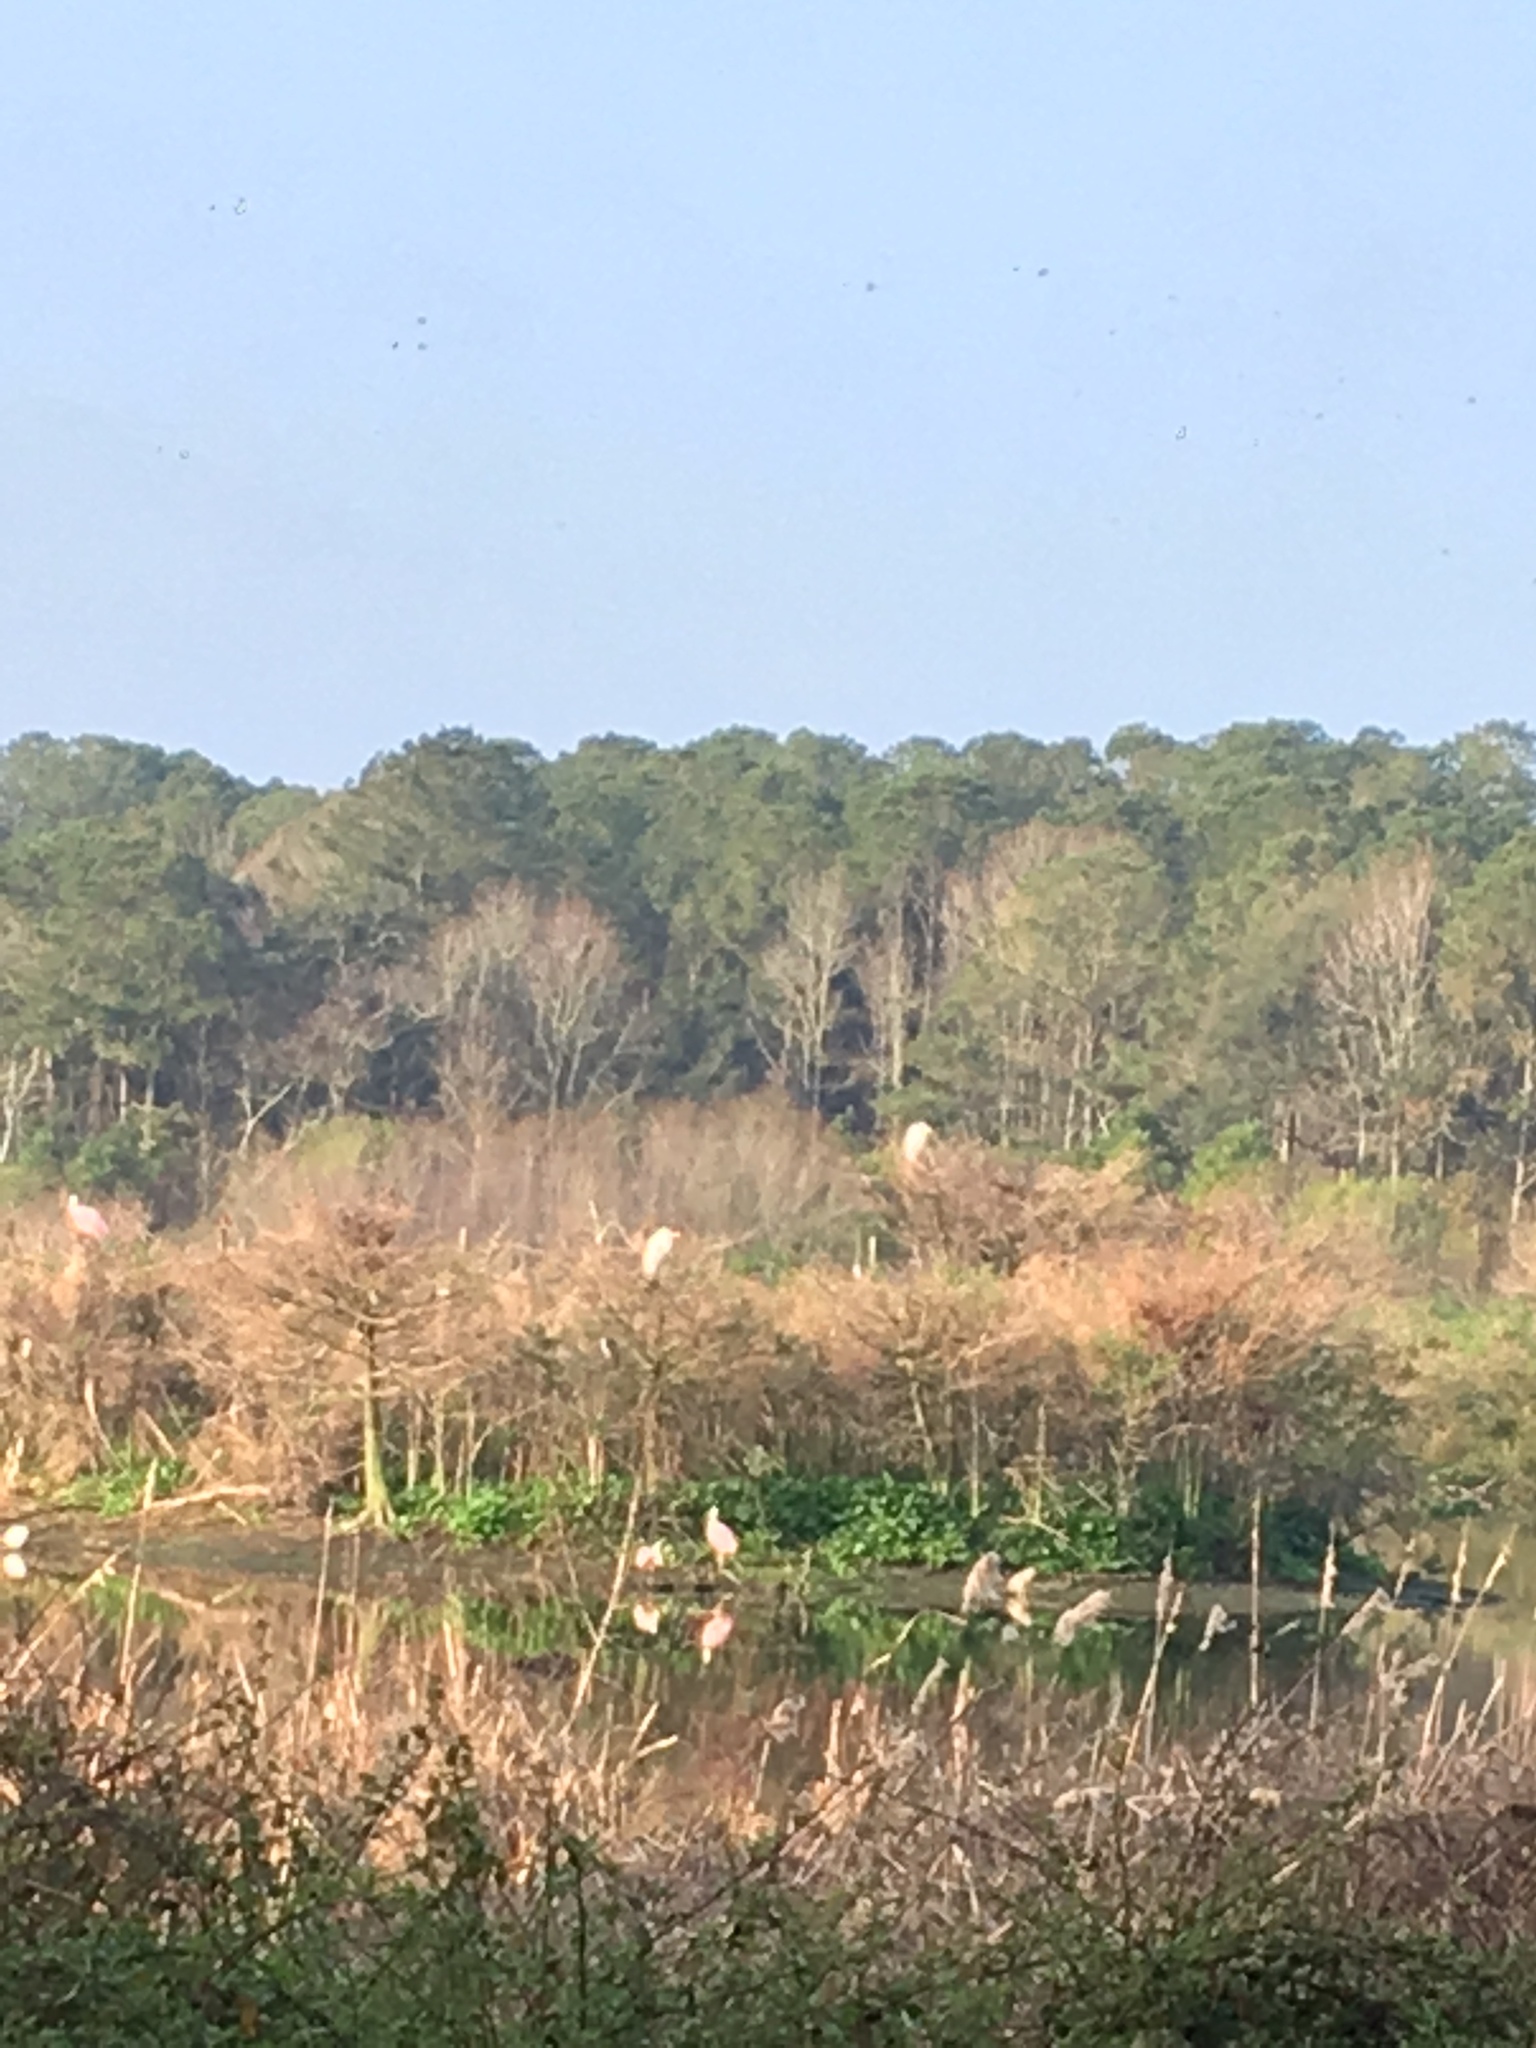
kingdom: Animalia
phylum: Chordata
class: Aves
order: Pelecaniformes
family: Threskiornithidae
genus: Platalea
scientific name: Platalea ajaja
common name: Roseate spoonbill
